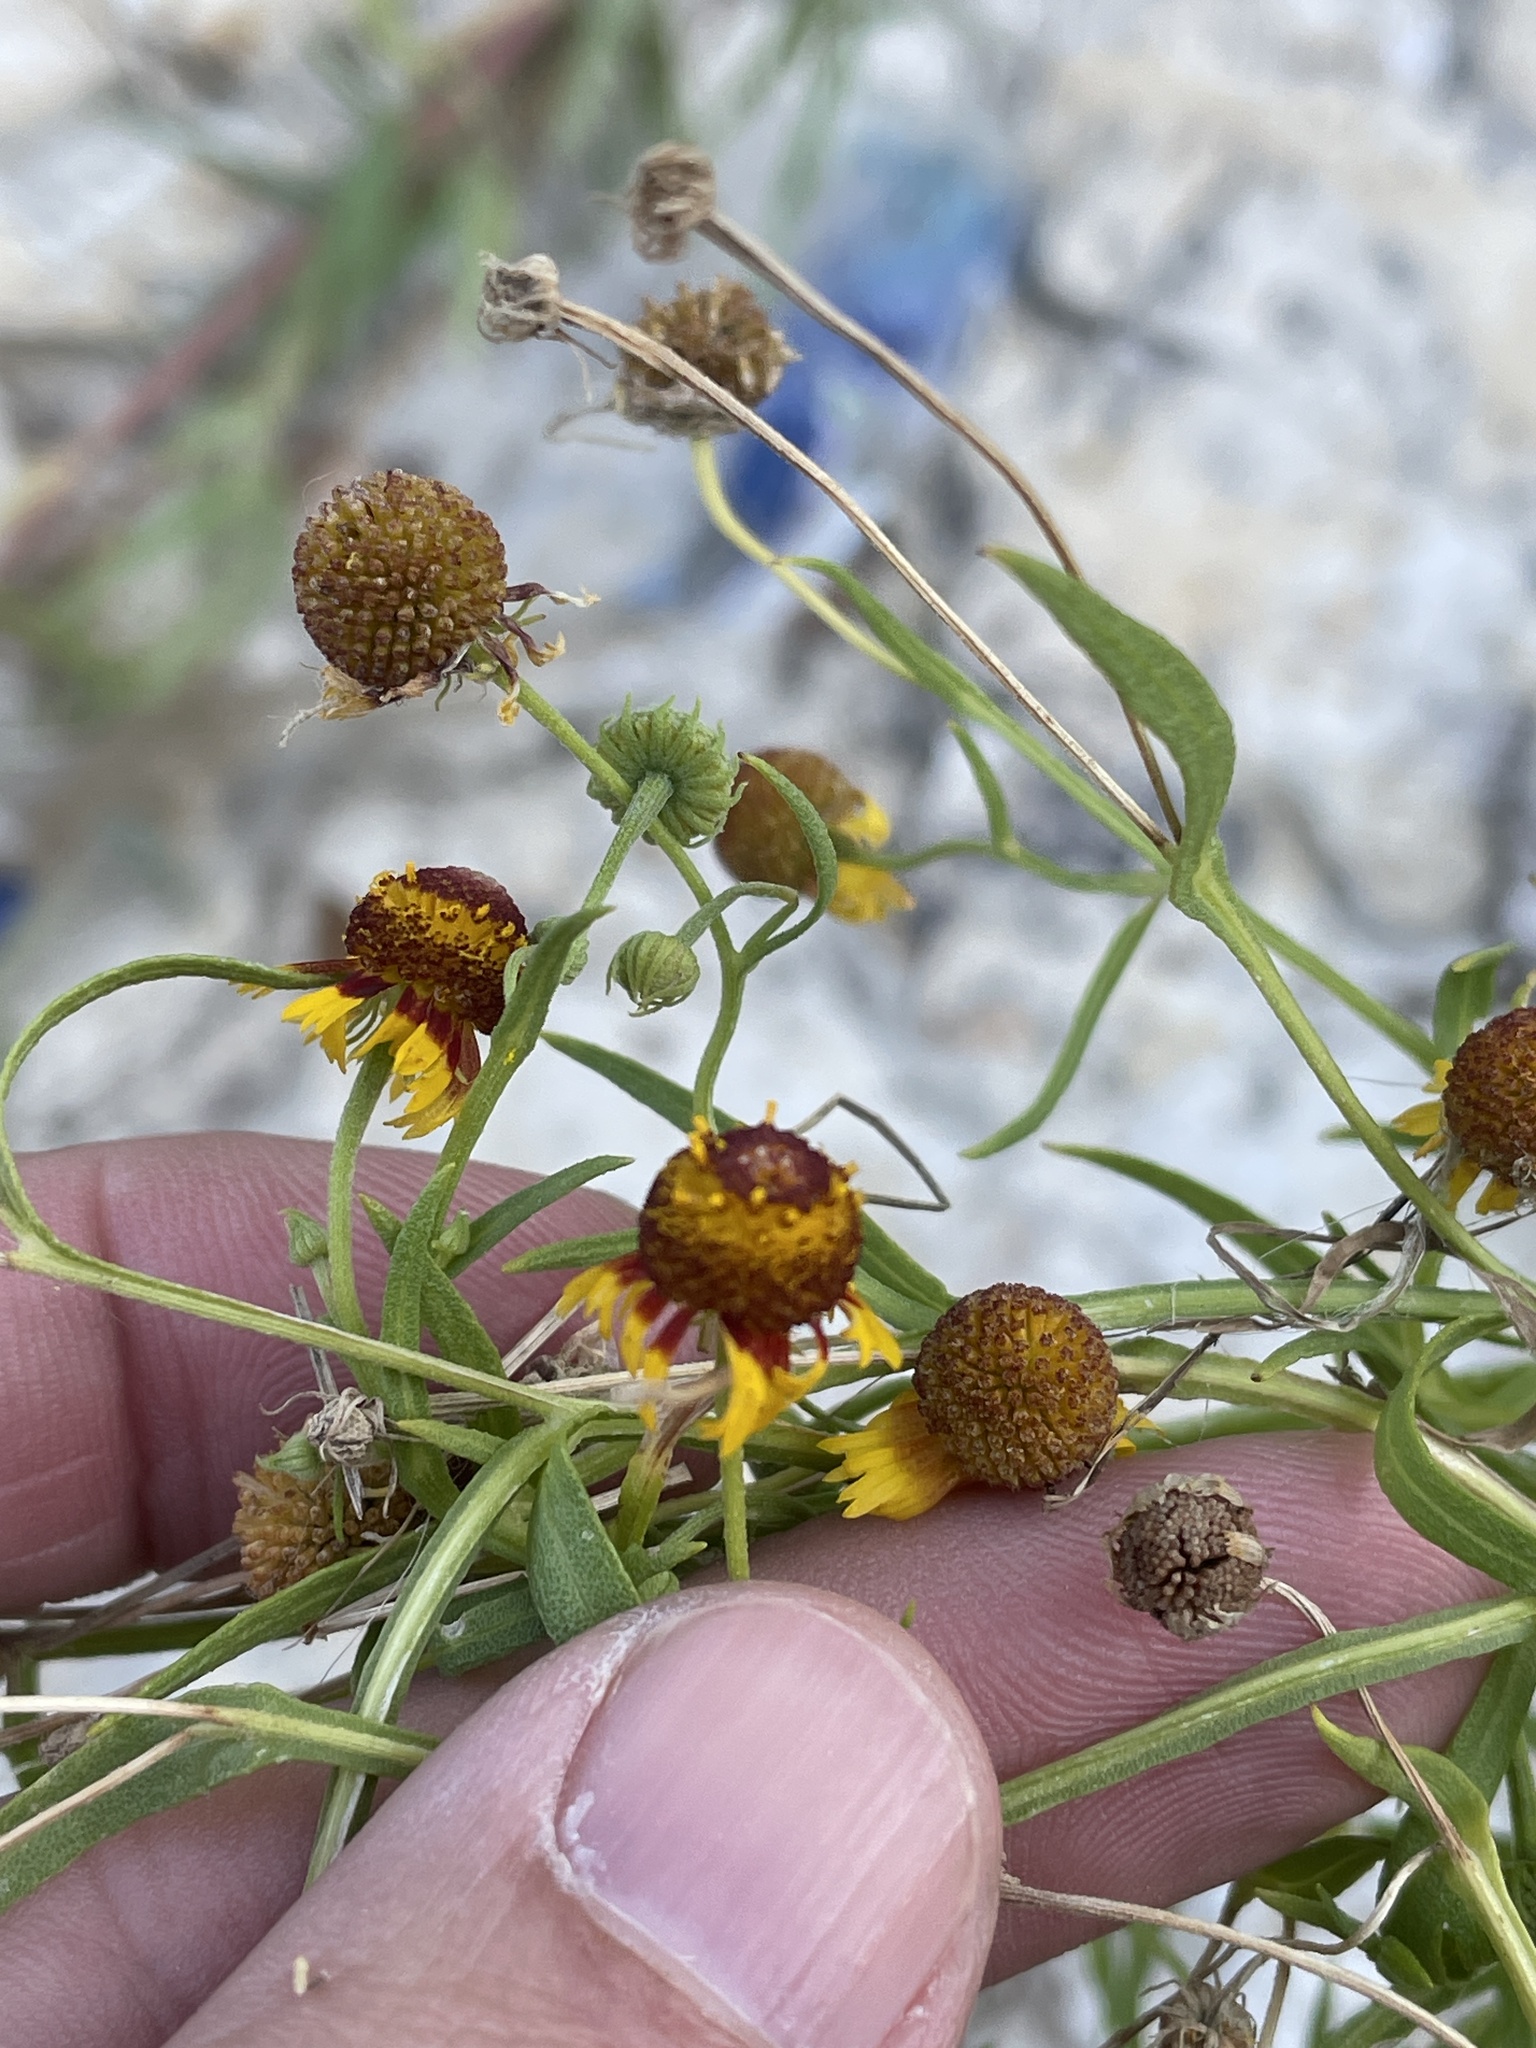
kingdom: Plantae
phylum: Tracheophyta
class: Magnoliopsida
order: Asterales
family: Asteraceae
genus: Helenium
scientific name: Helenium elegans
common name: Pretty sneezeweed
